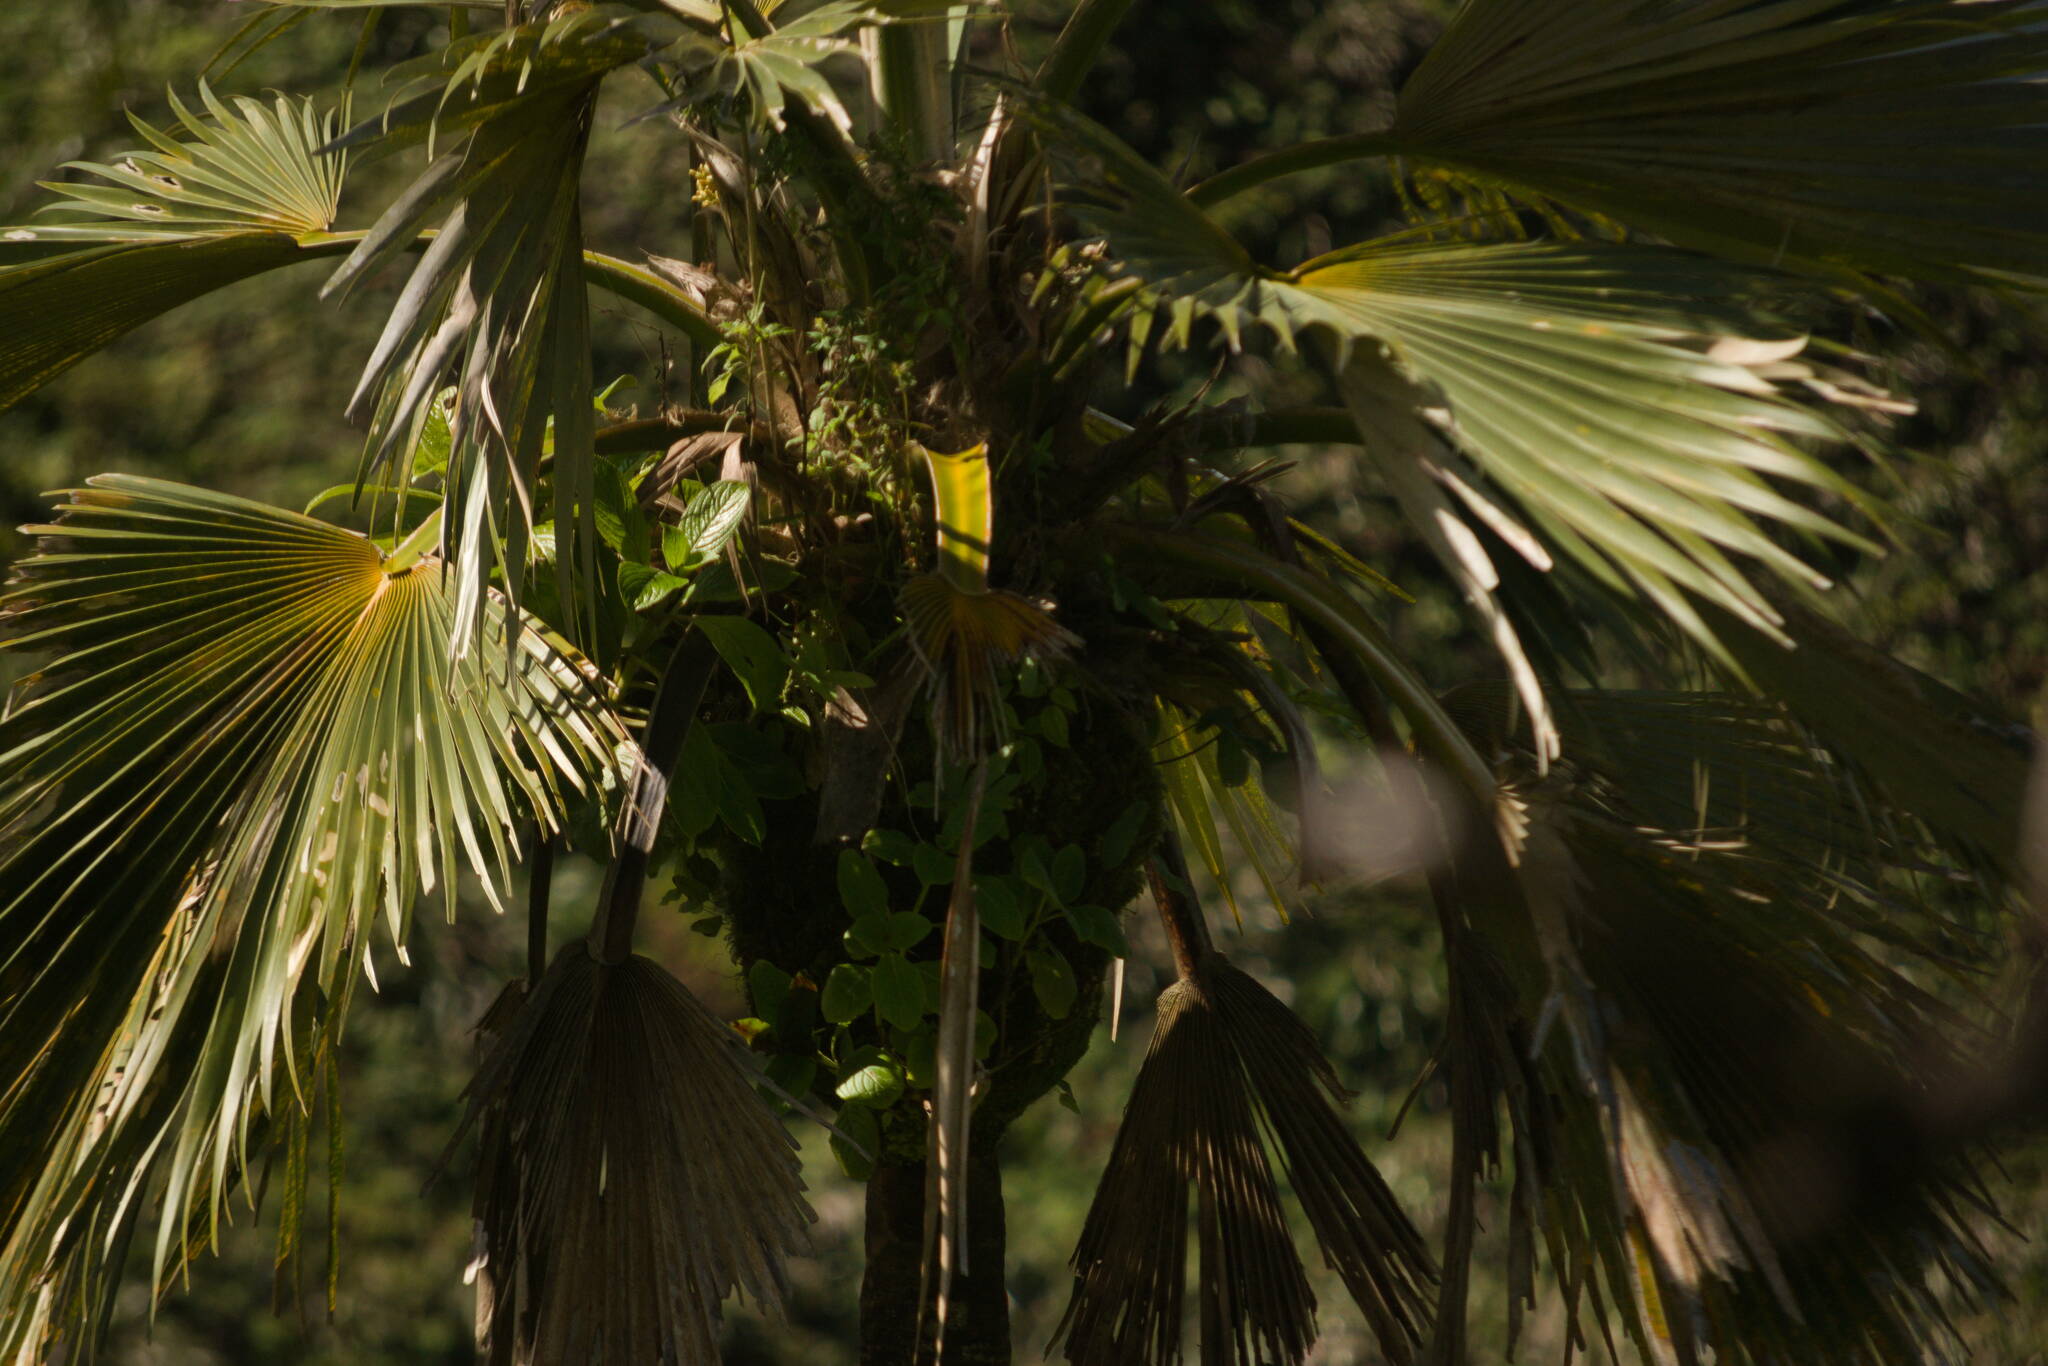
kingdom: Plantae
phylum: Tracheophyta
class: Magnoliopsida
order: Cornales
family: Hydrangeaceae
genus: Hydrangea
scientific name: Hydrangea arguta
